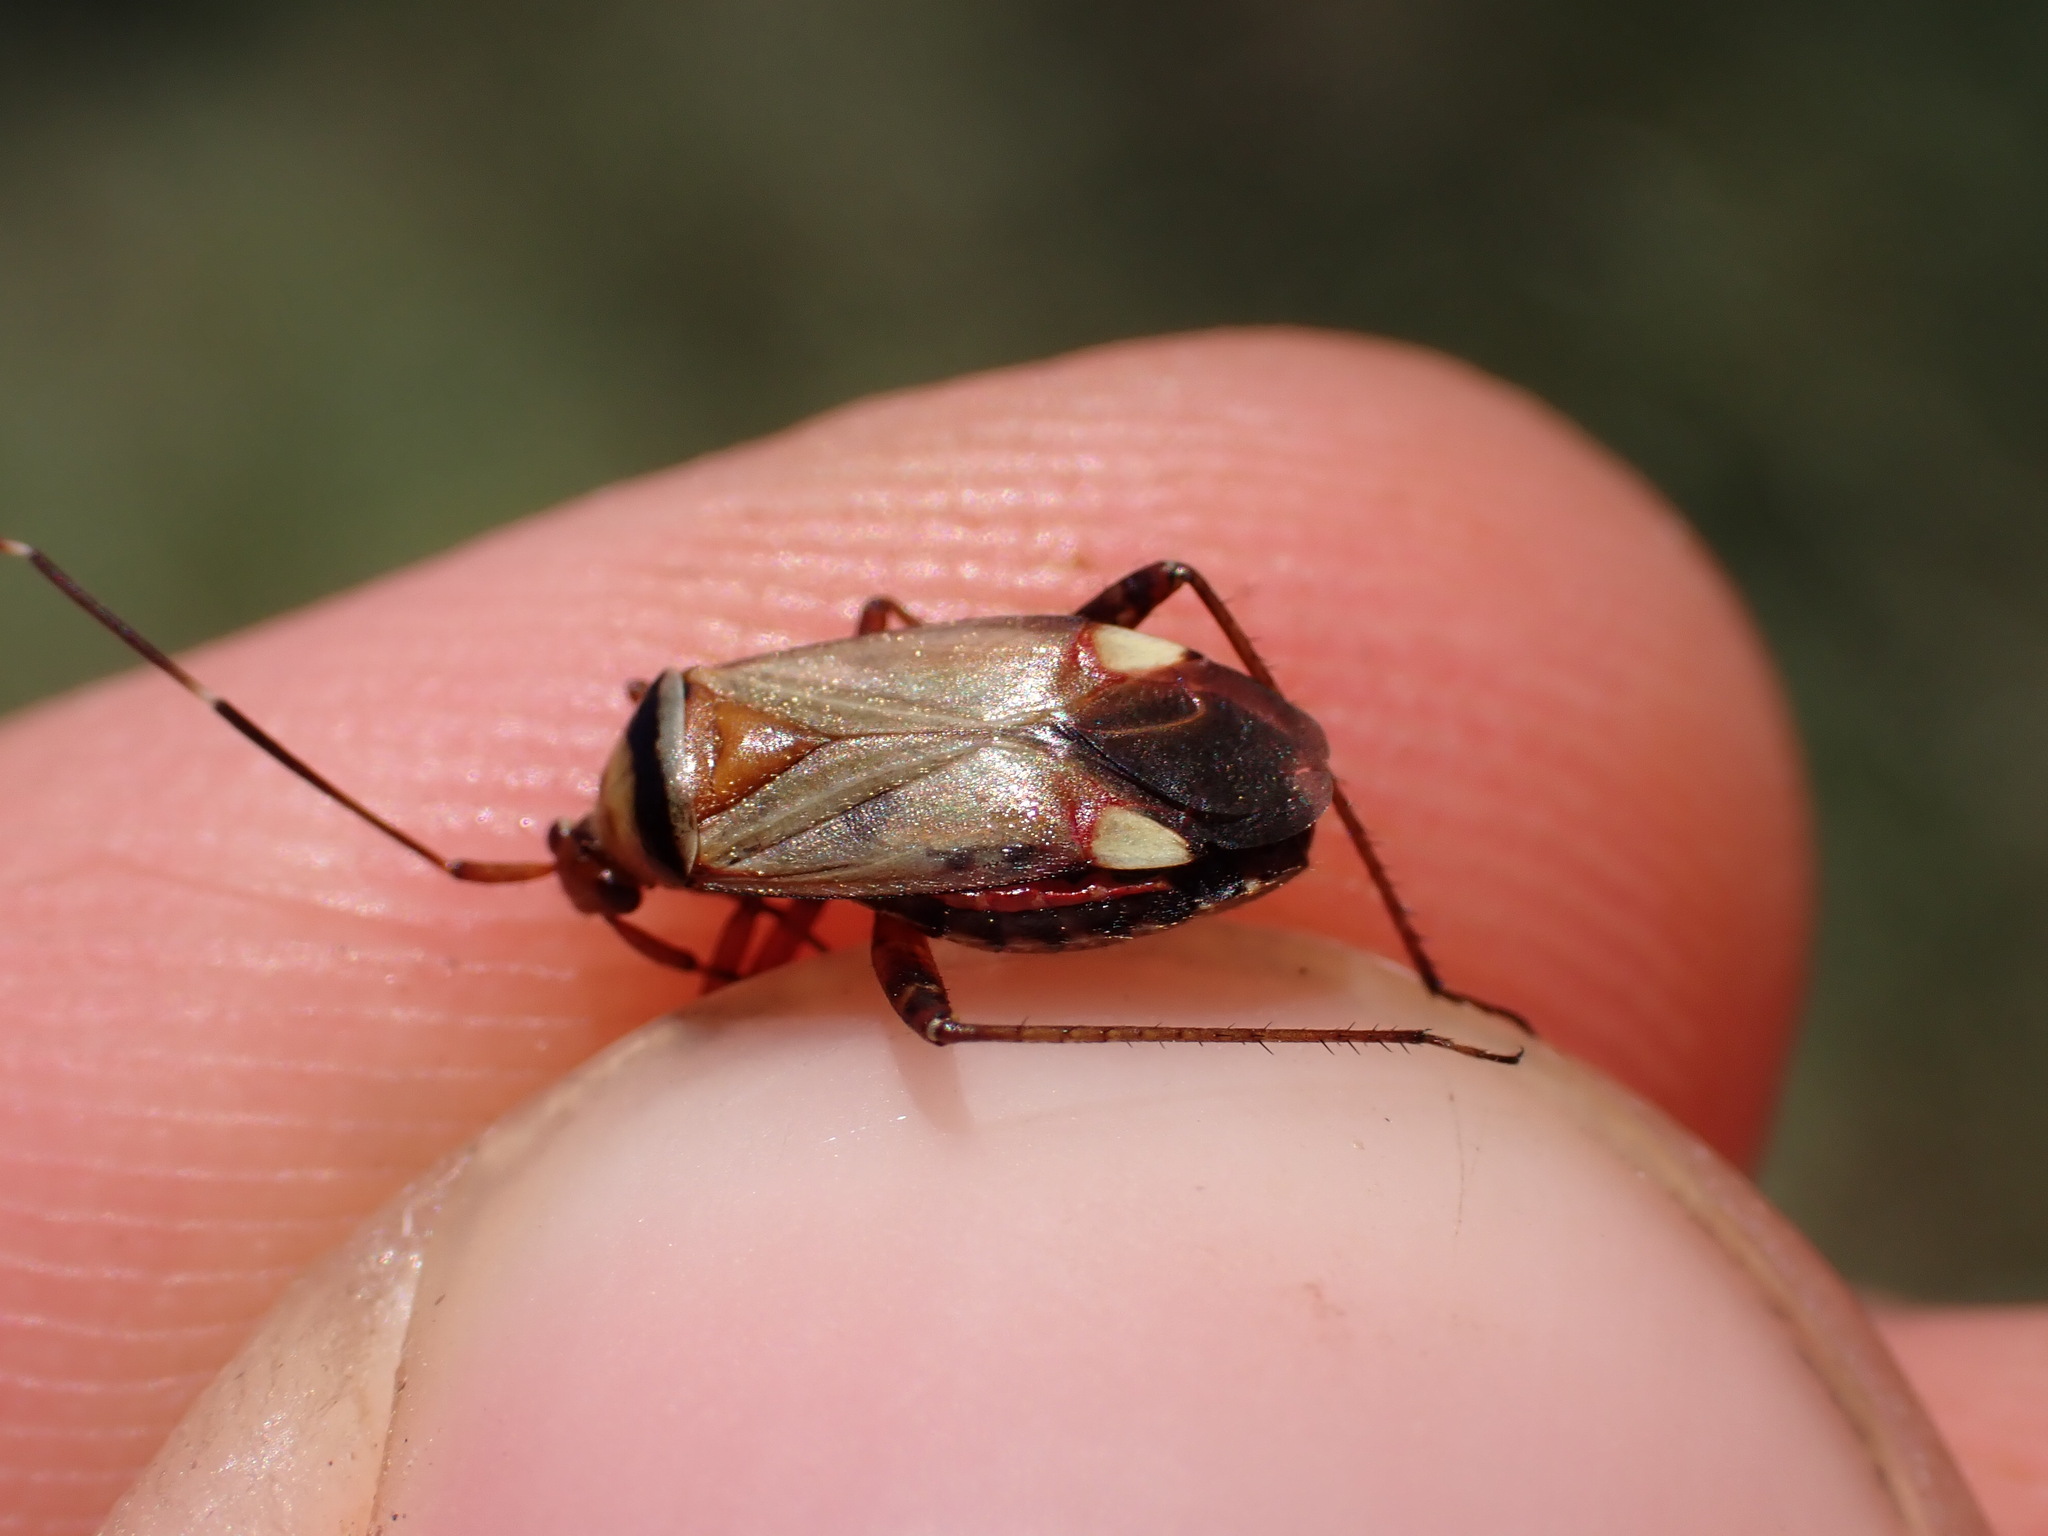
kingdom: Animalia
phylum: Arthropoda
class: Insecta
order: Hemiptera
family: Miridae
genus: Adelphocoris
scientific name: Adelphocoris vandalicus
